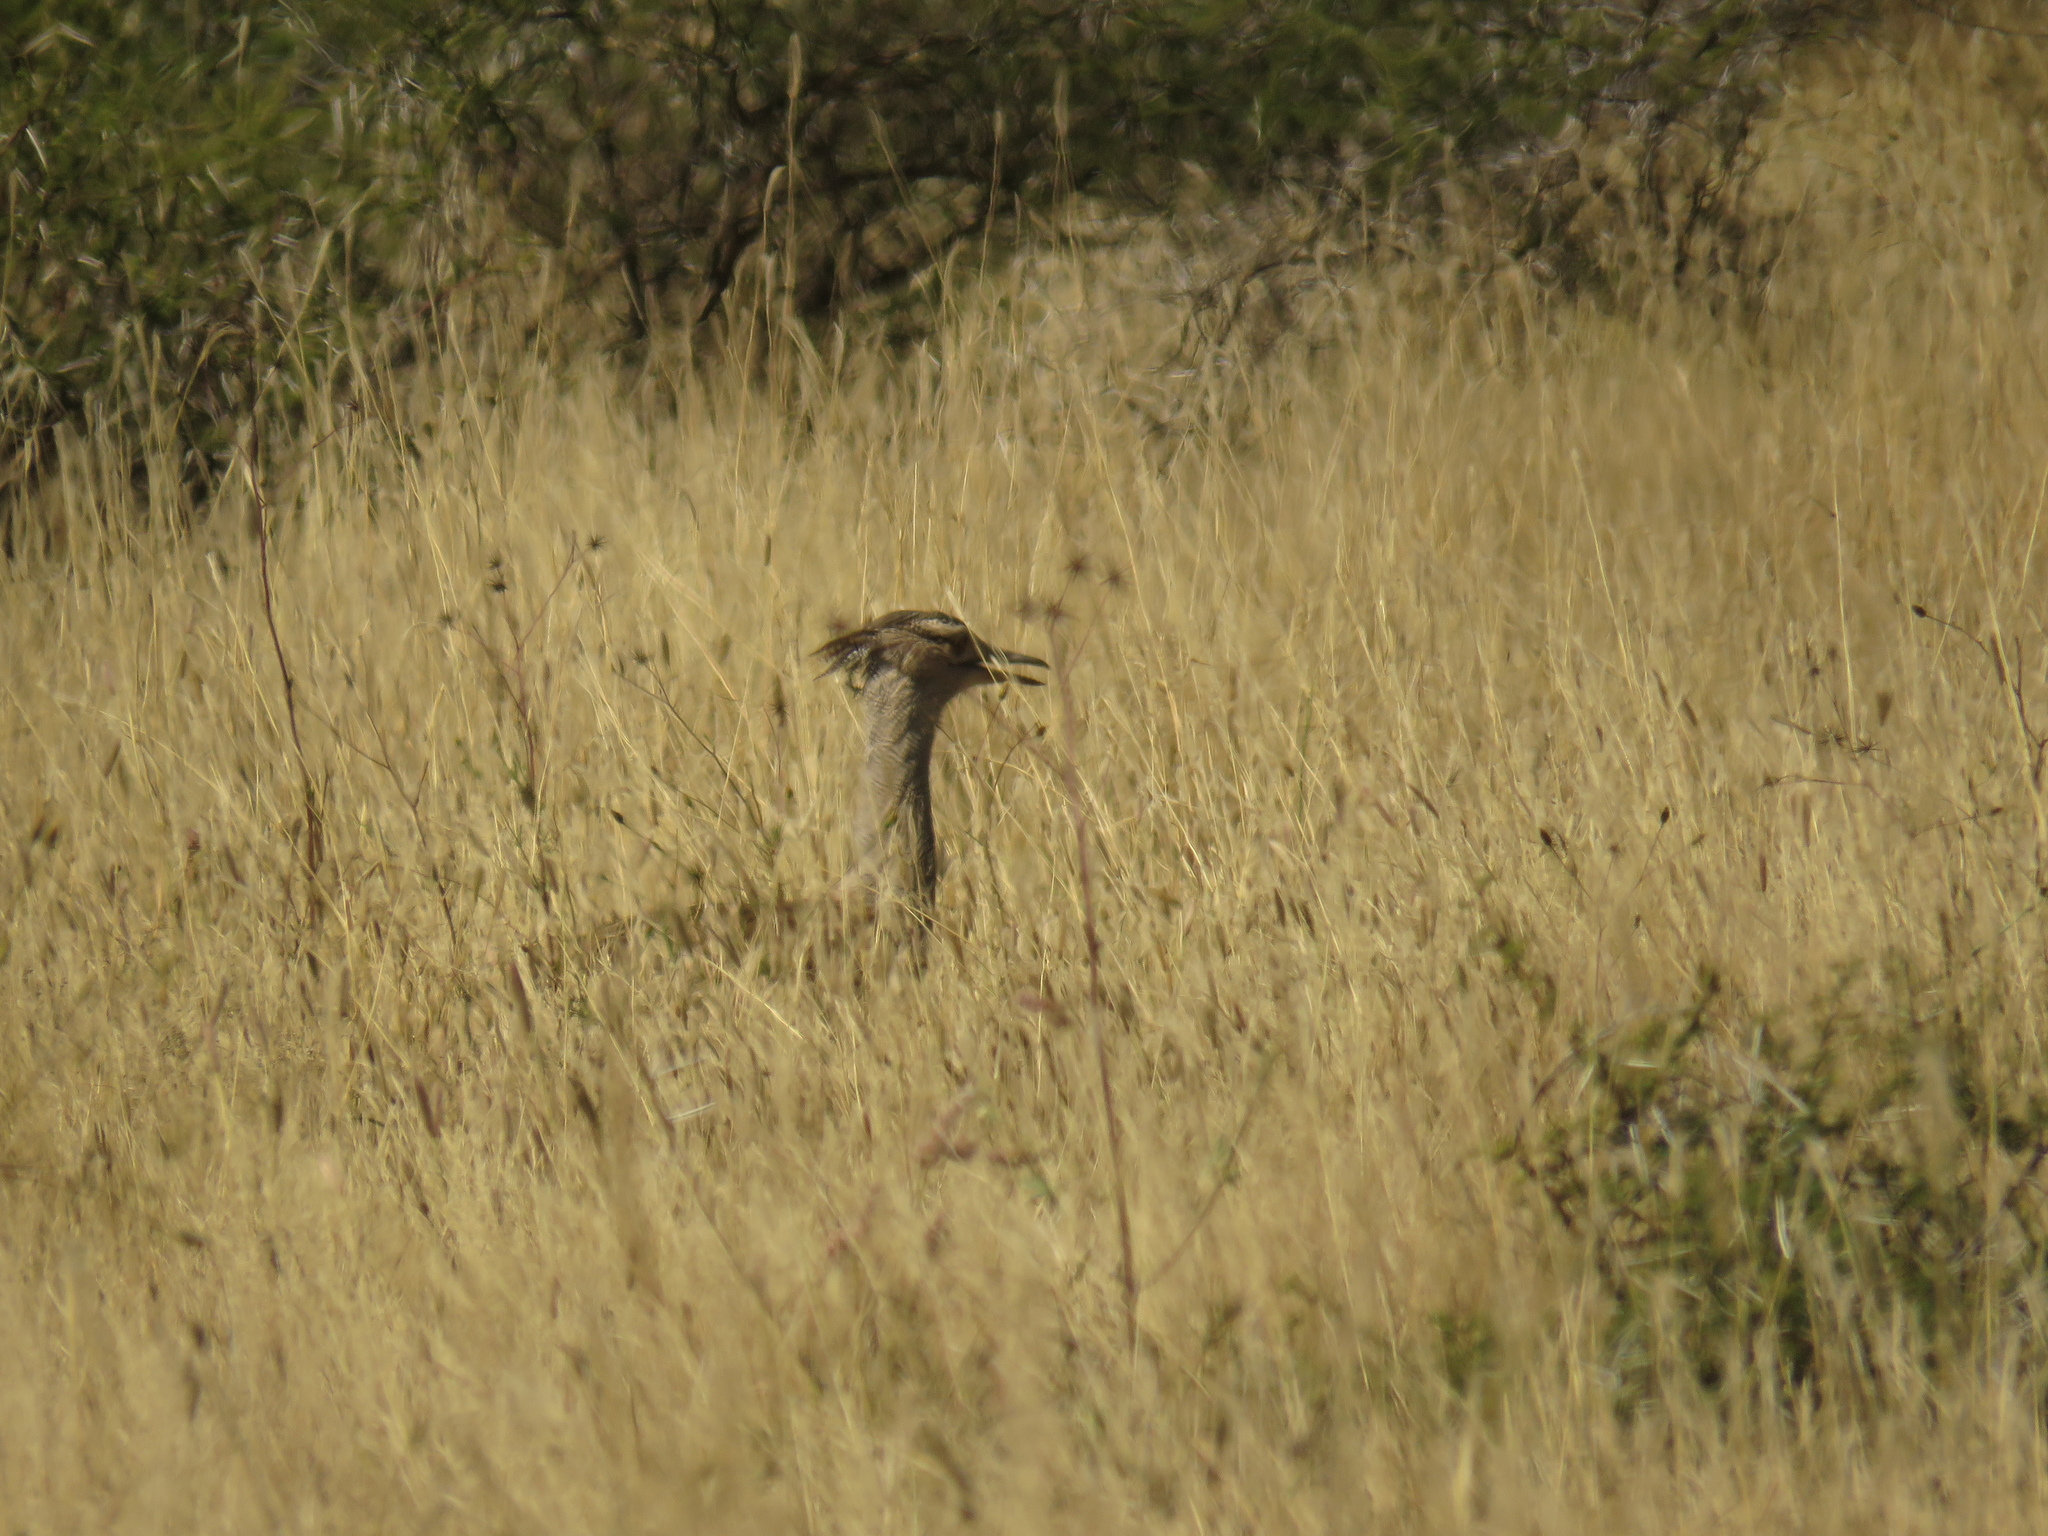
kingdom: Animalia
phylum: Chordata
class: Aves
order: Otidiformes
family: Otididae
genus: Ardeotis
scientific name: Ardeotis kori
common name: Kori bustard
